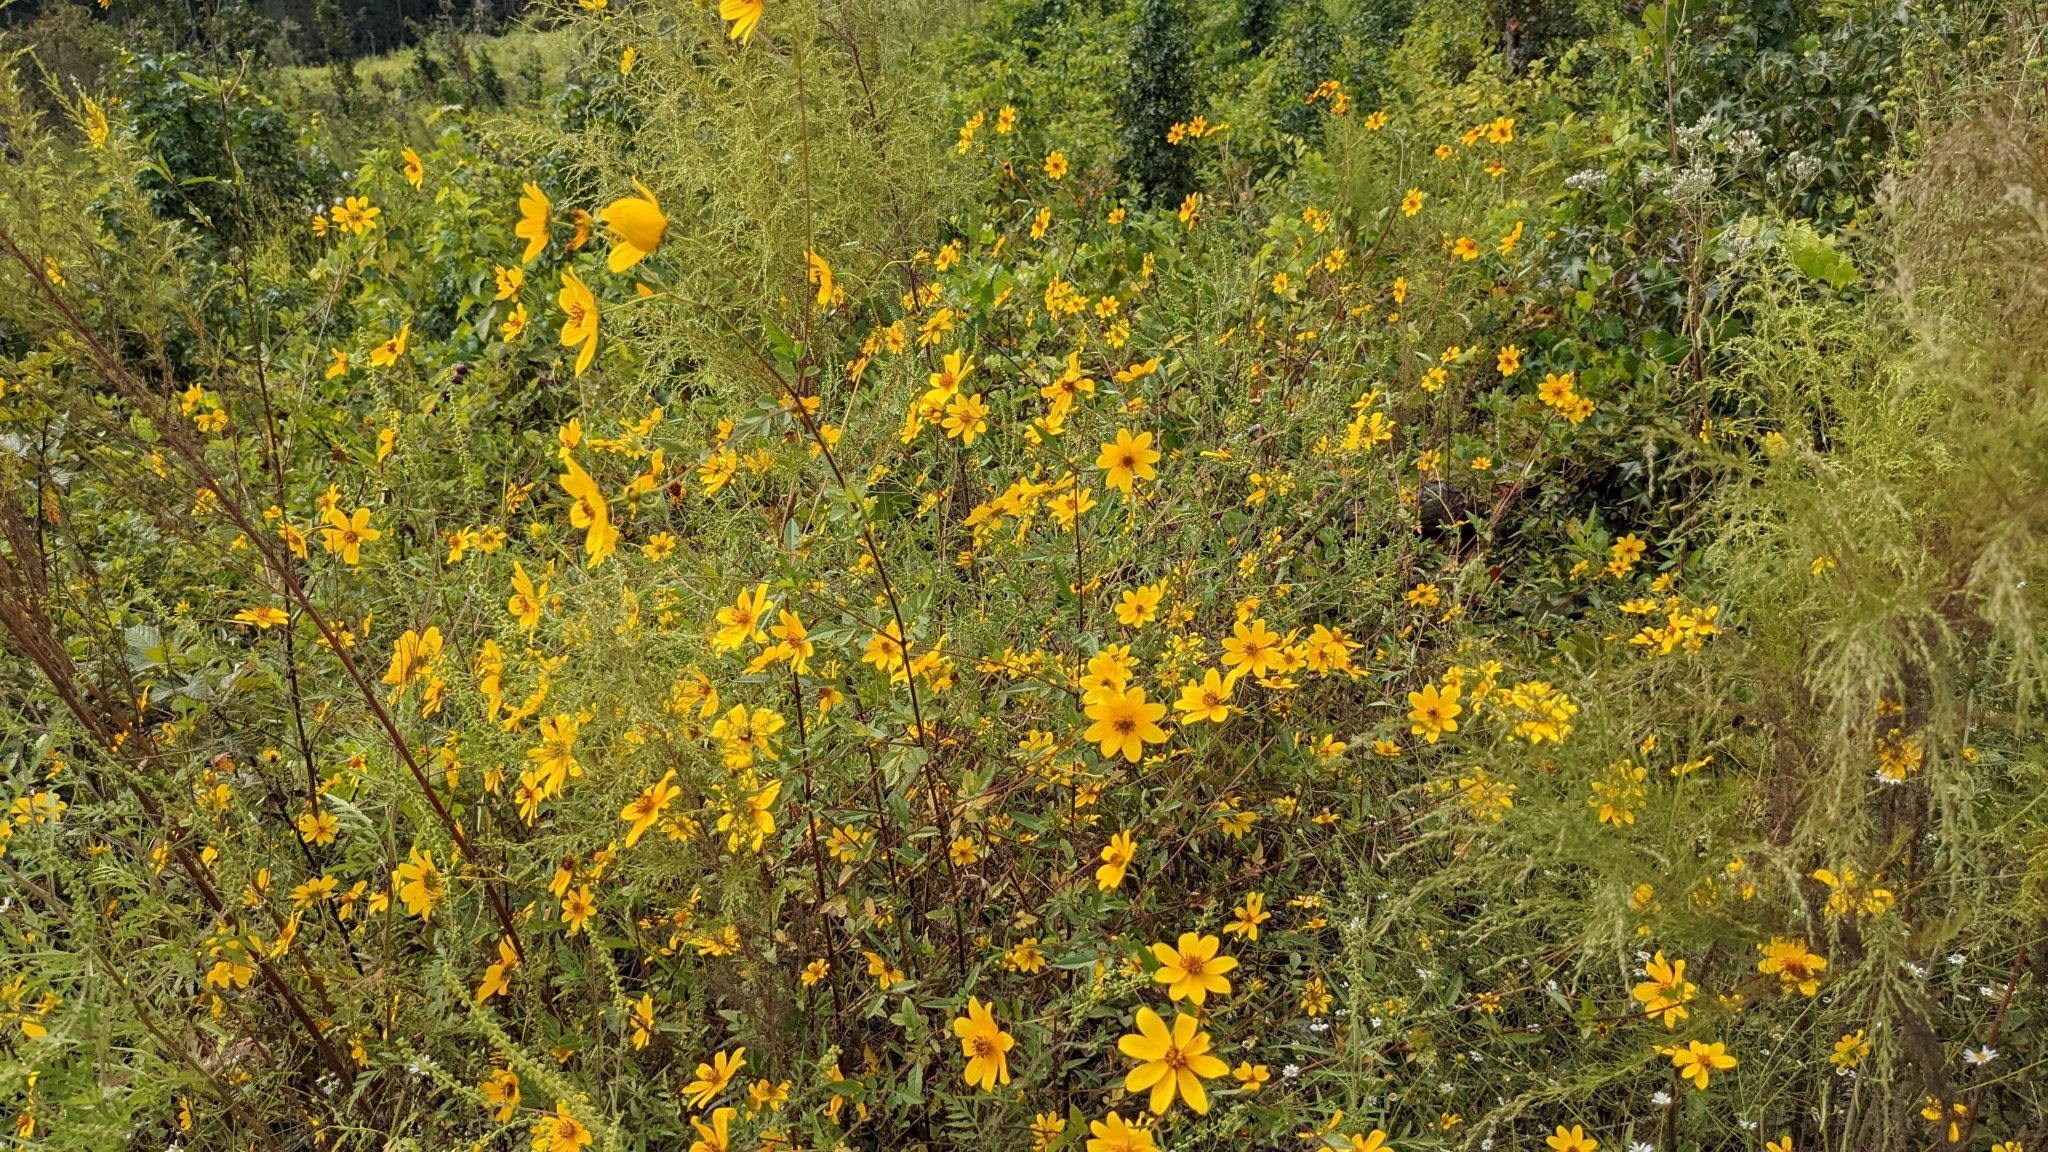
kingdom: Plantae
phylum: Tracheophyta
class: Magnoliopsida
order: Asterales
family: Asteraceae
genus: Bidens
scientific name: Bidens polylepis
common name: Awnless beggarticks
